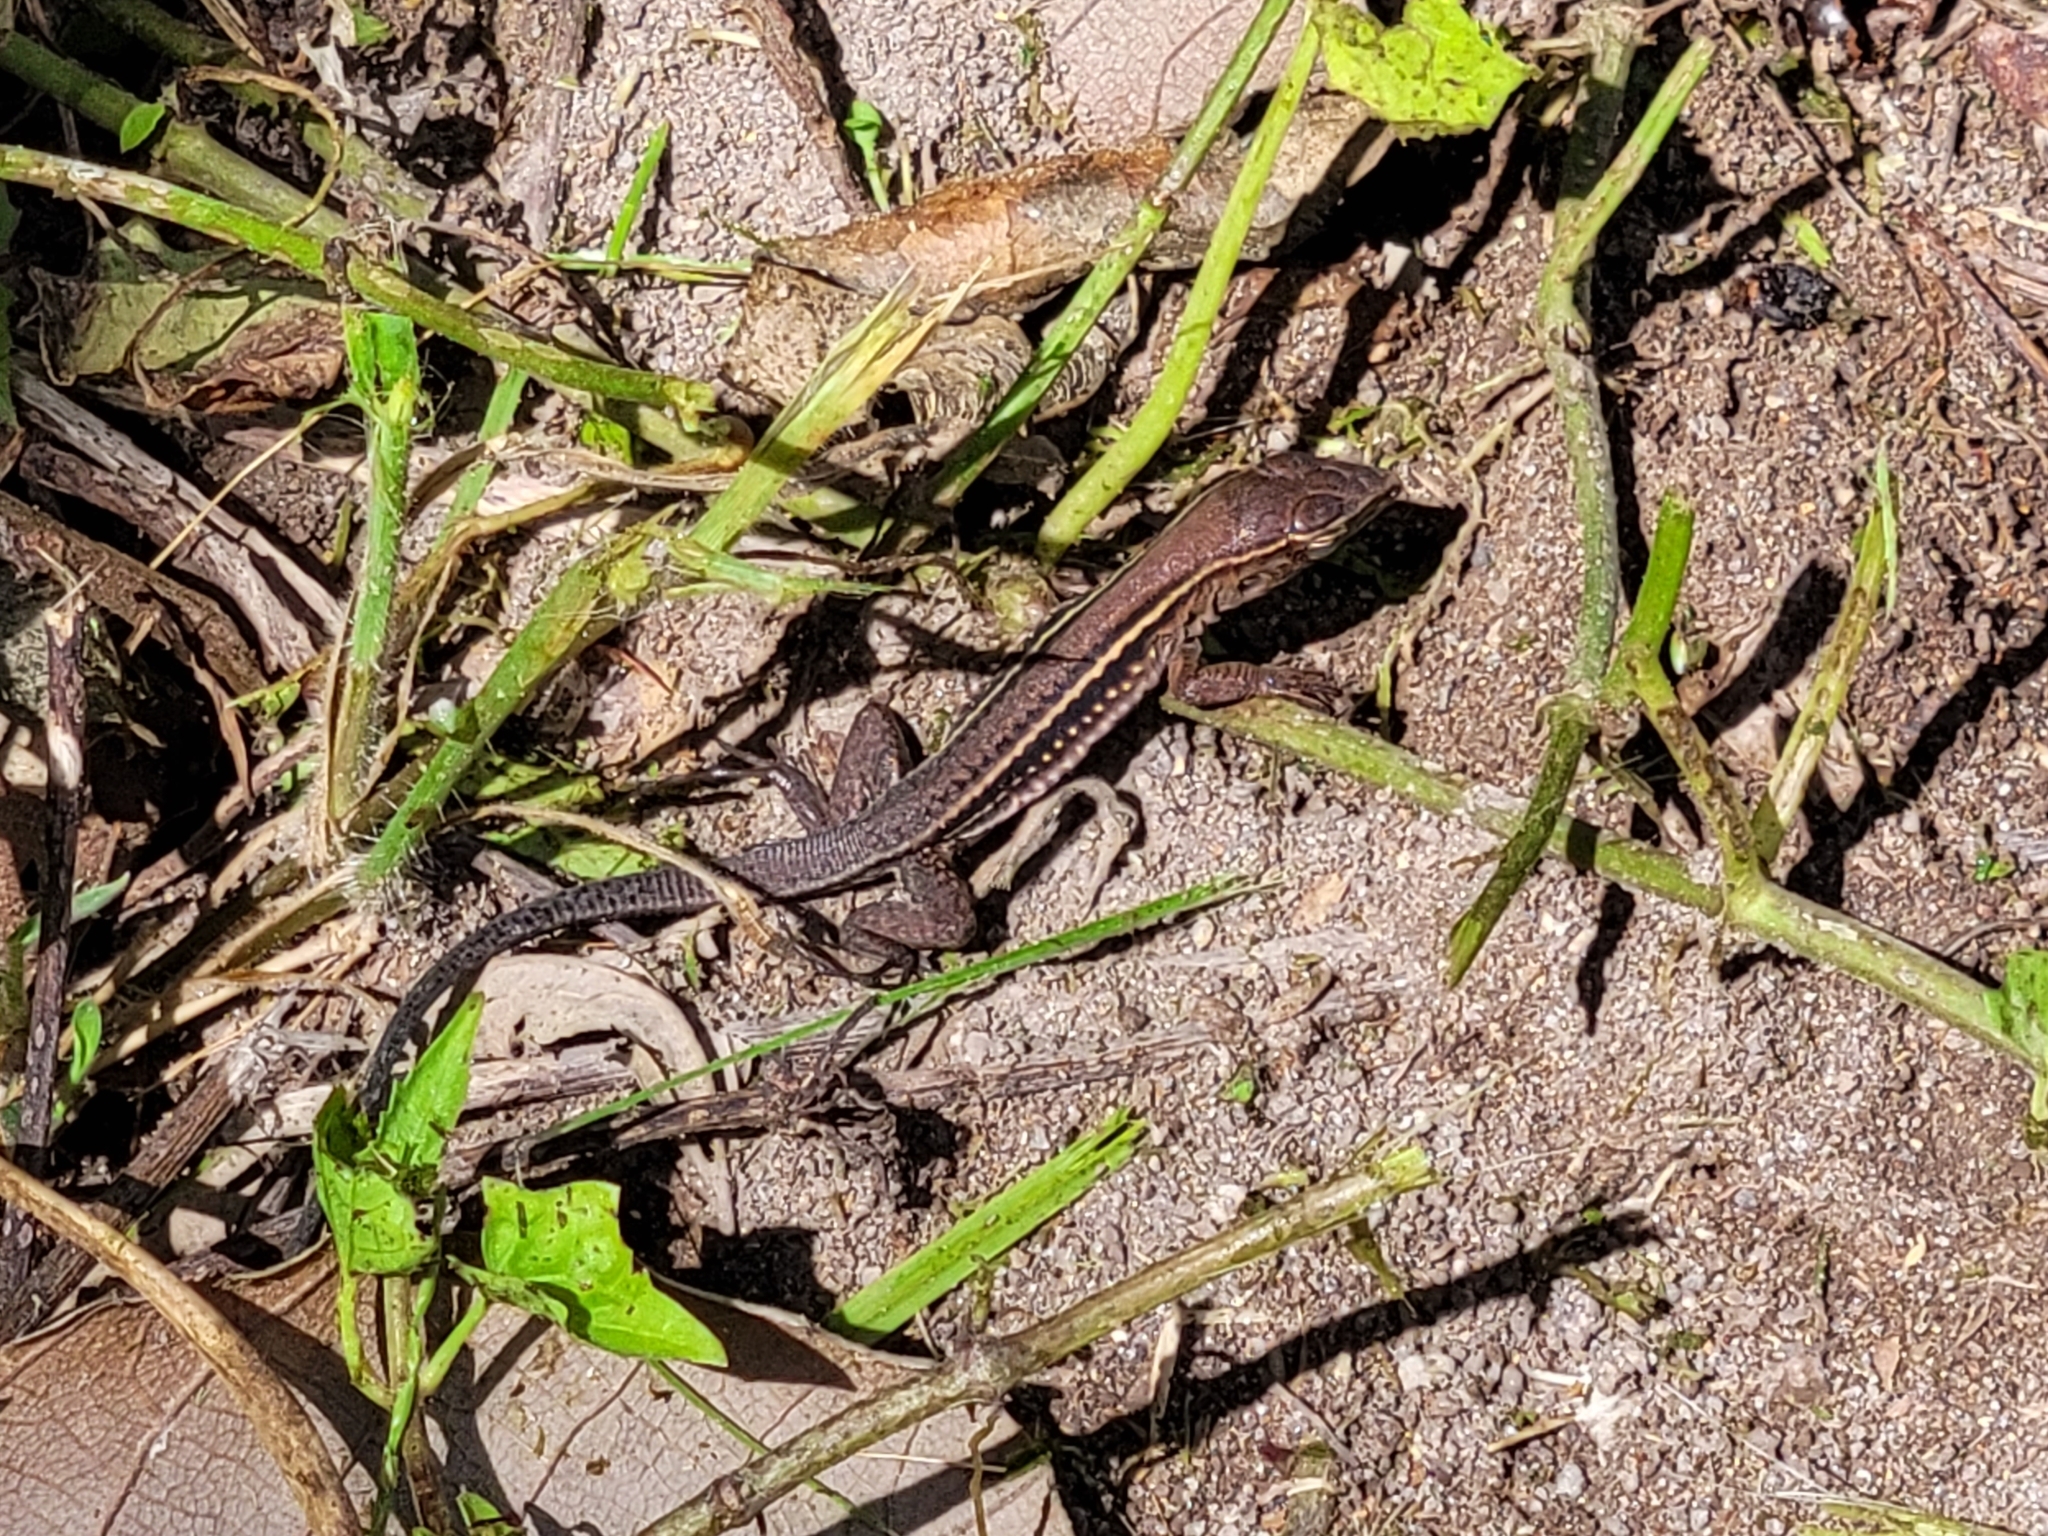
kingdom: Animalia
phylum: Chordata
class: Squamata
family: Teiidae
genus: Pholidoscelis
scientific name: Pholidoscelis exsul
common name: Common puerto rican ameiva
